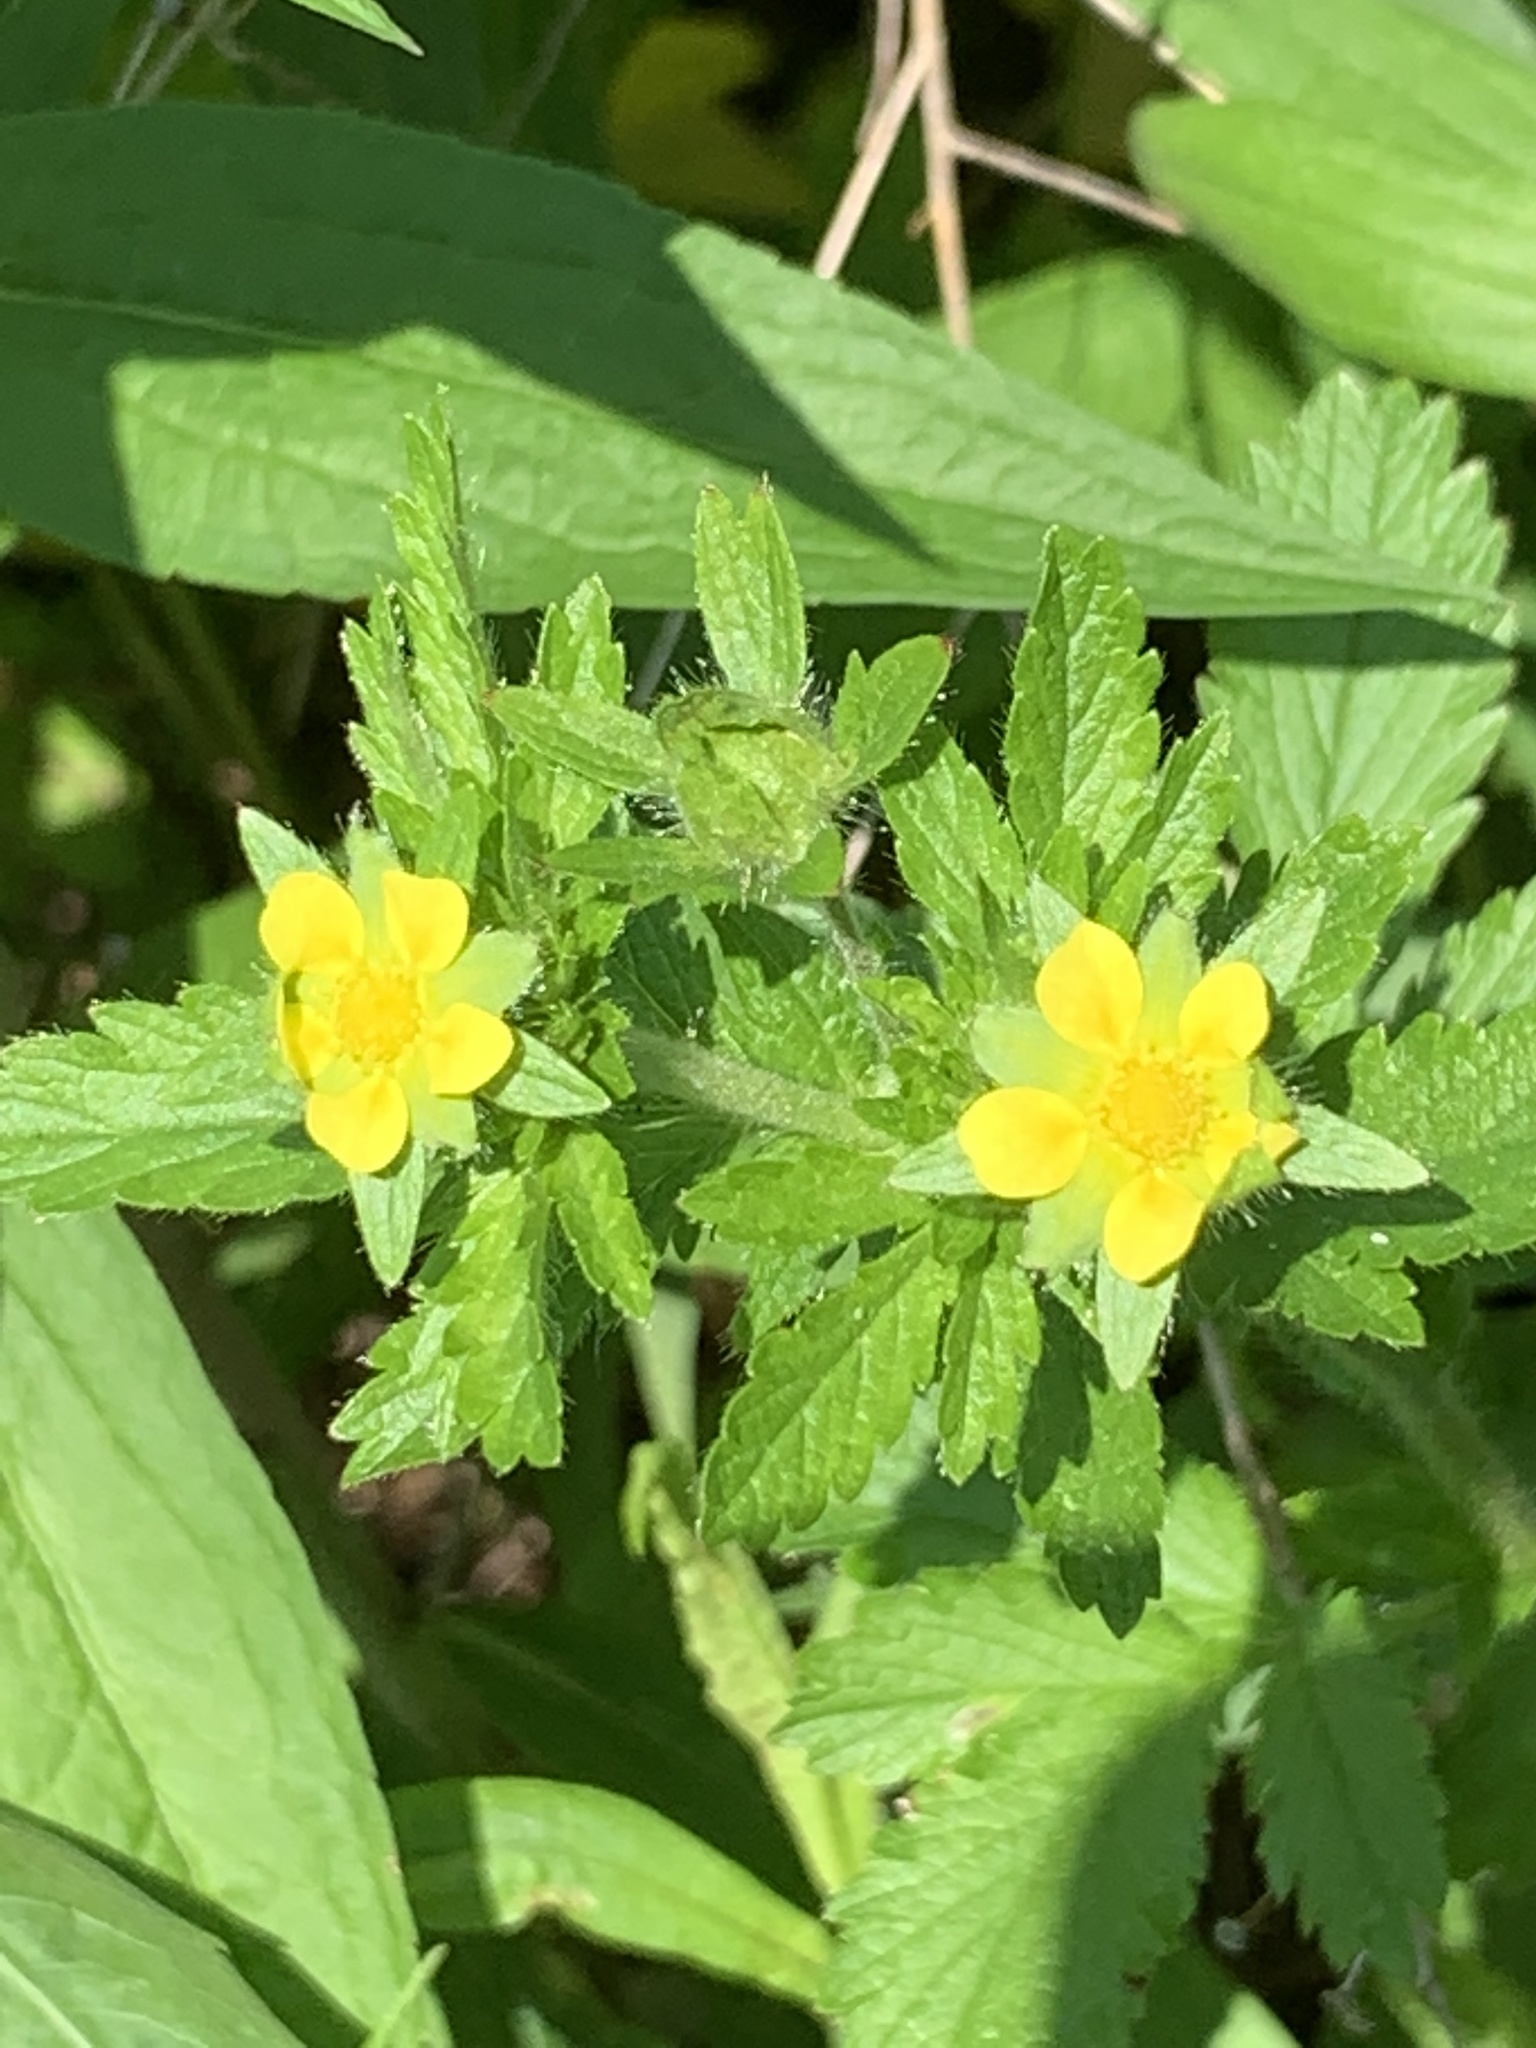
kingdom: Plantae
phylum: Tracheophyta
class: Magnoliopsida
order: Rosales
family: Rosaceae
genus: Potentilla
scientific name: Potentilla norvegica
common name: Ternate-leaved cinquefoil
